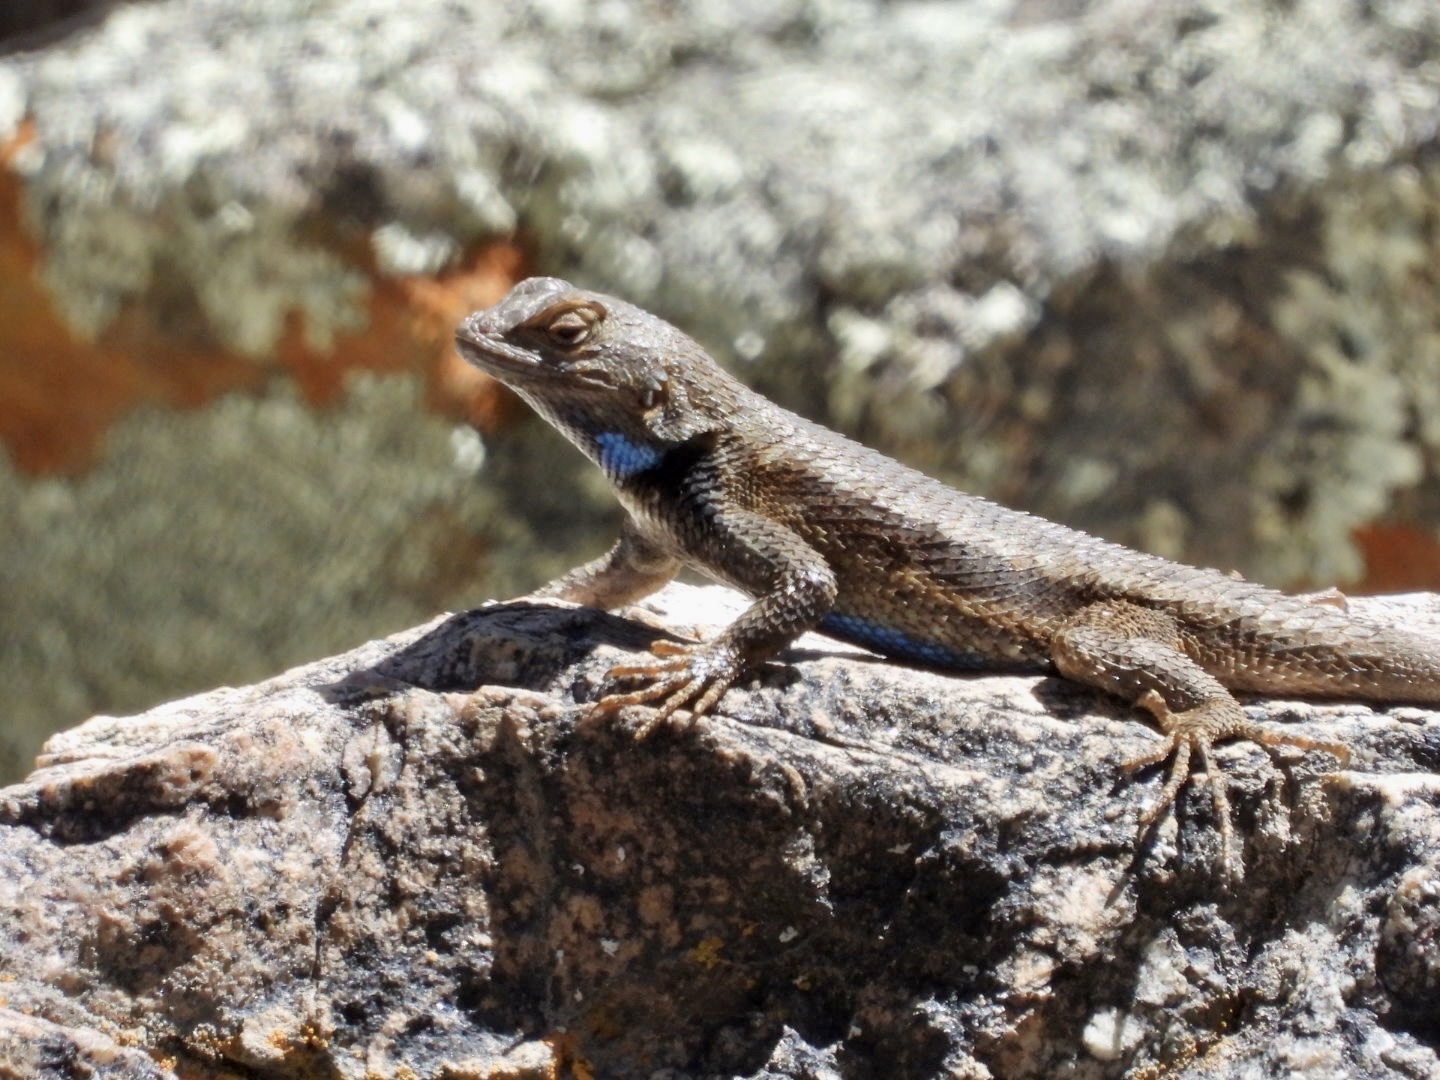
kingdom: Animalia
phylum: Chordata
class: Squamata
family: Phrynosomatidae
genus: Sceloporus
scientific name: Sceloporus tristichus
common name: Plateau fence lizard
